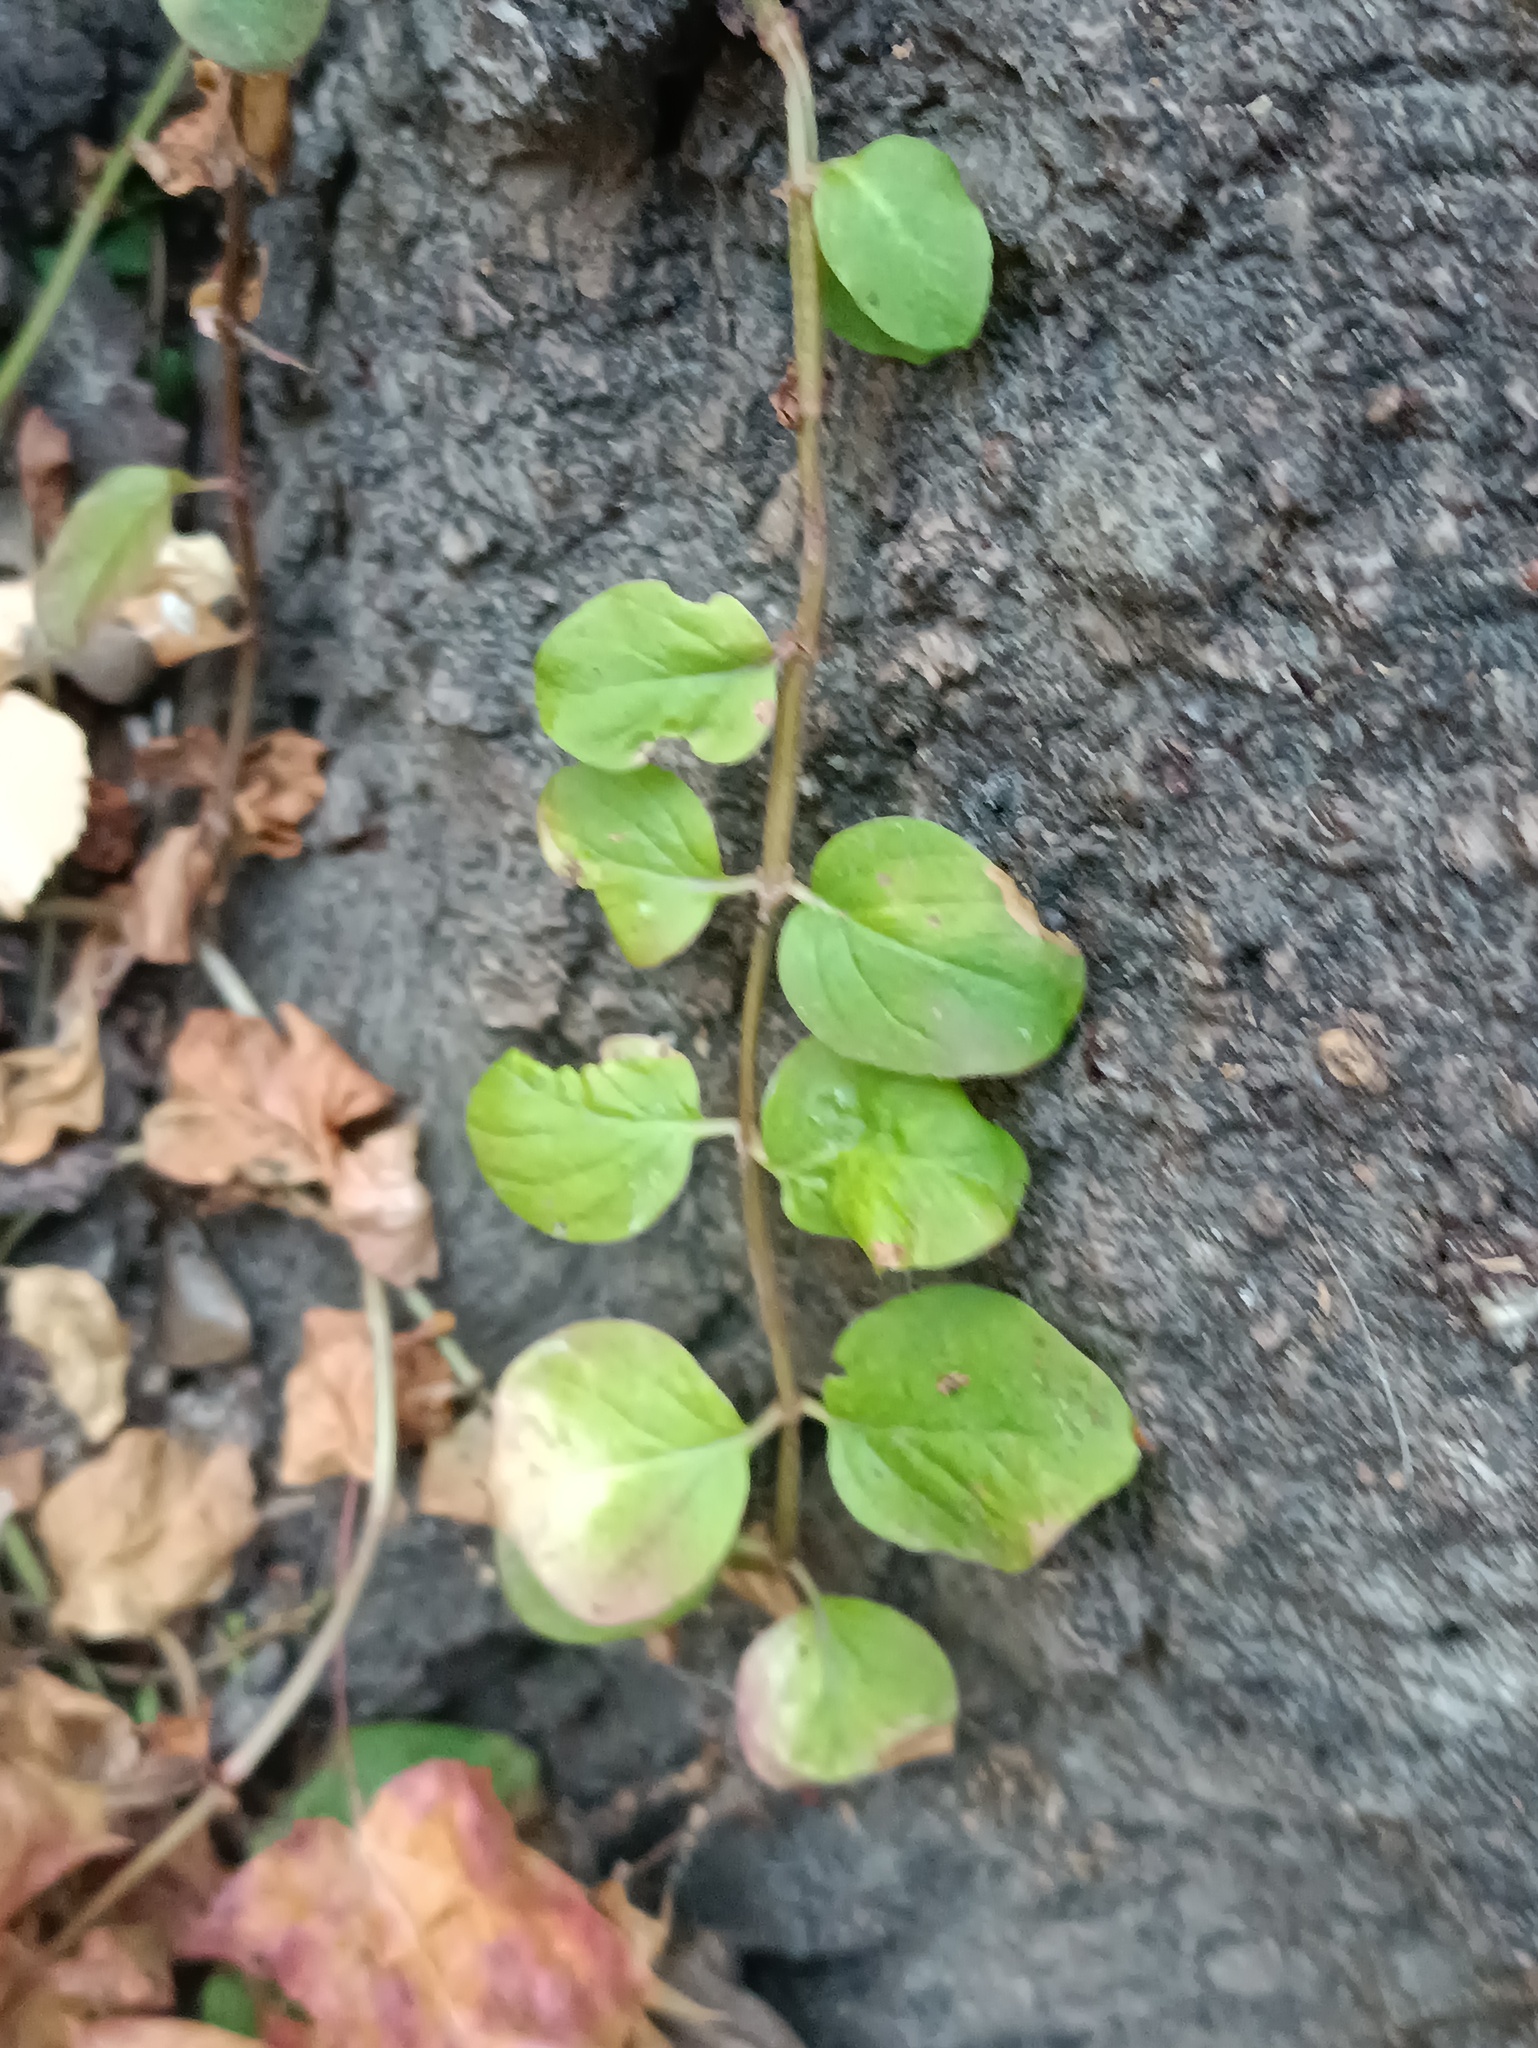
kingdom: Plantae
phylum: Tracheophyta
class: Magnoliopsida
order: Ericales
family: Primulaceae
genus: Lysimachia
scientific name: Lysimachia nummularia
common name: Moneywort
